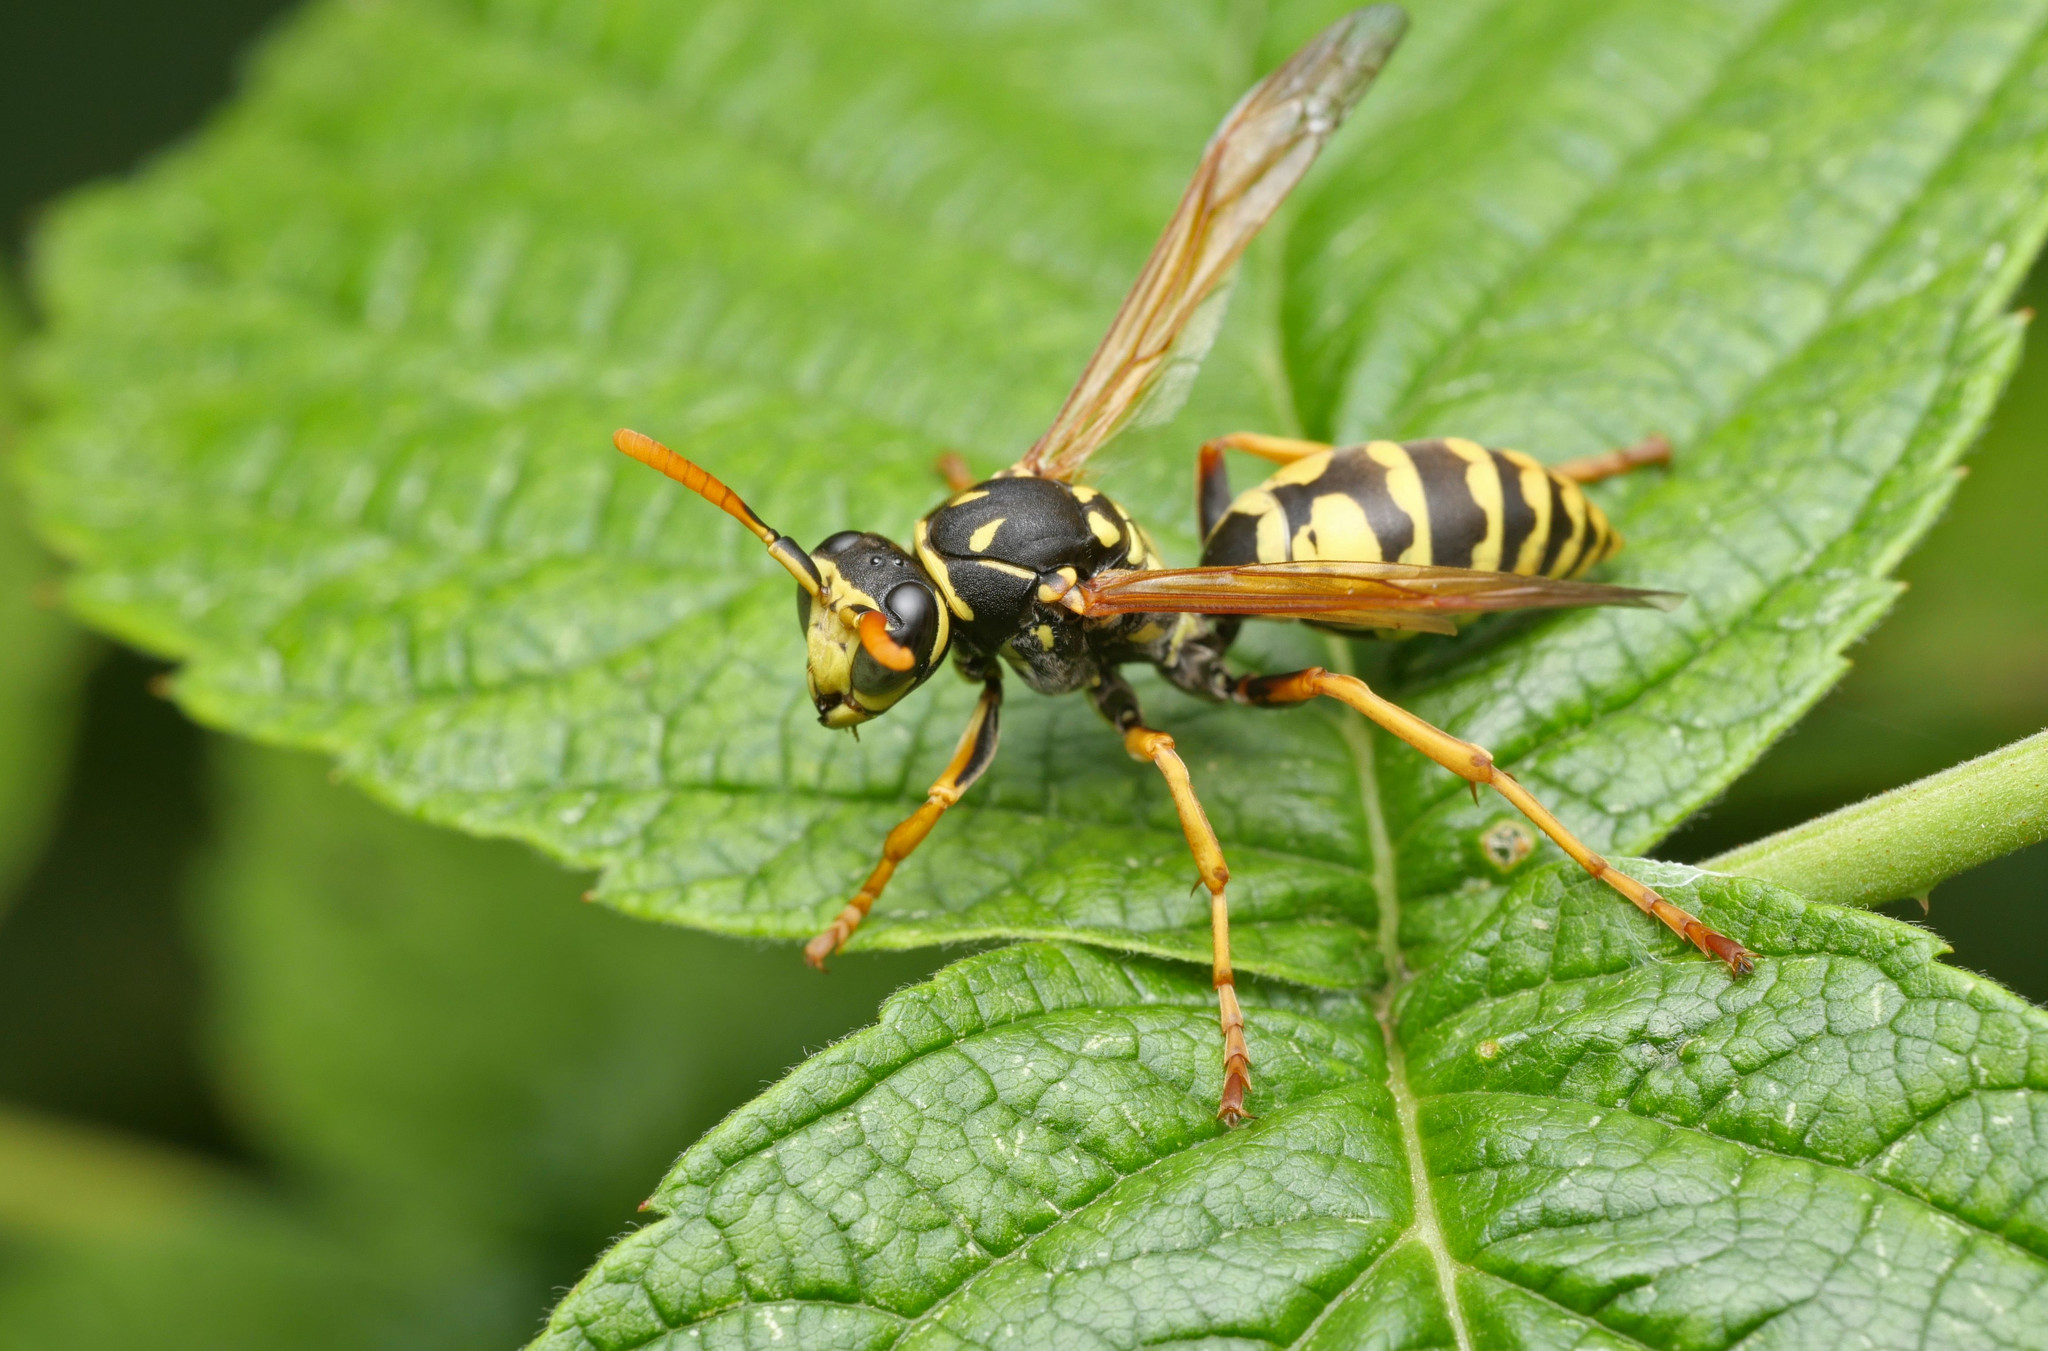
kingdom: Animalia
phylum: Arthropoda
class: Insecta
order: Hymenoptera
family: Eumenidae
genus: Polistes
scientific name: Polistes dominula
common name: Paper wasp
